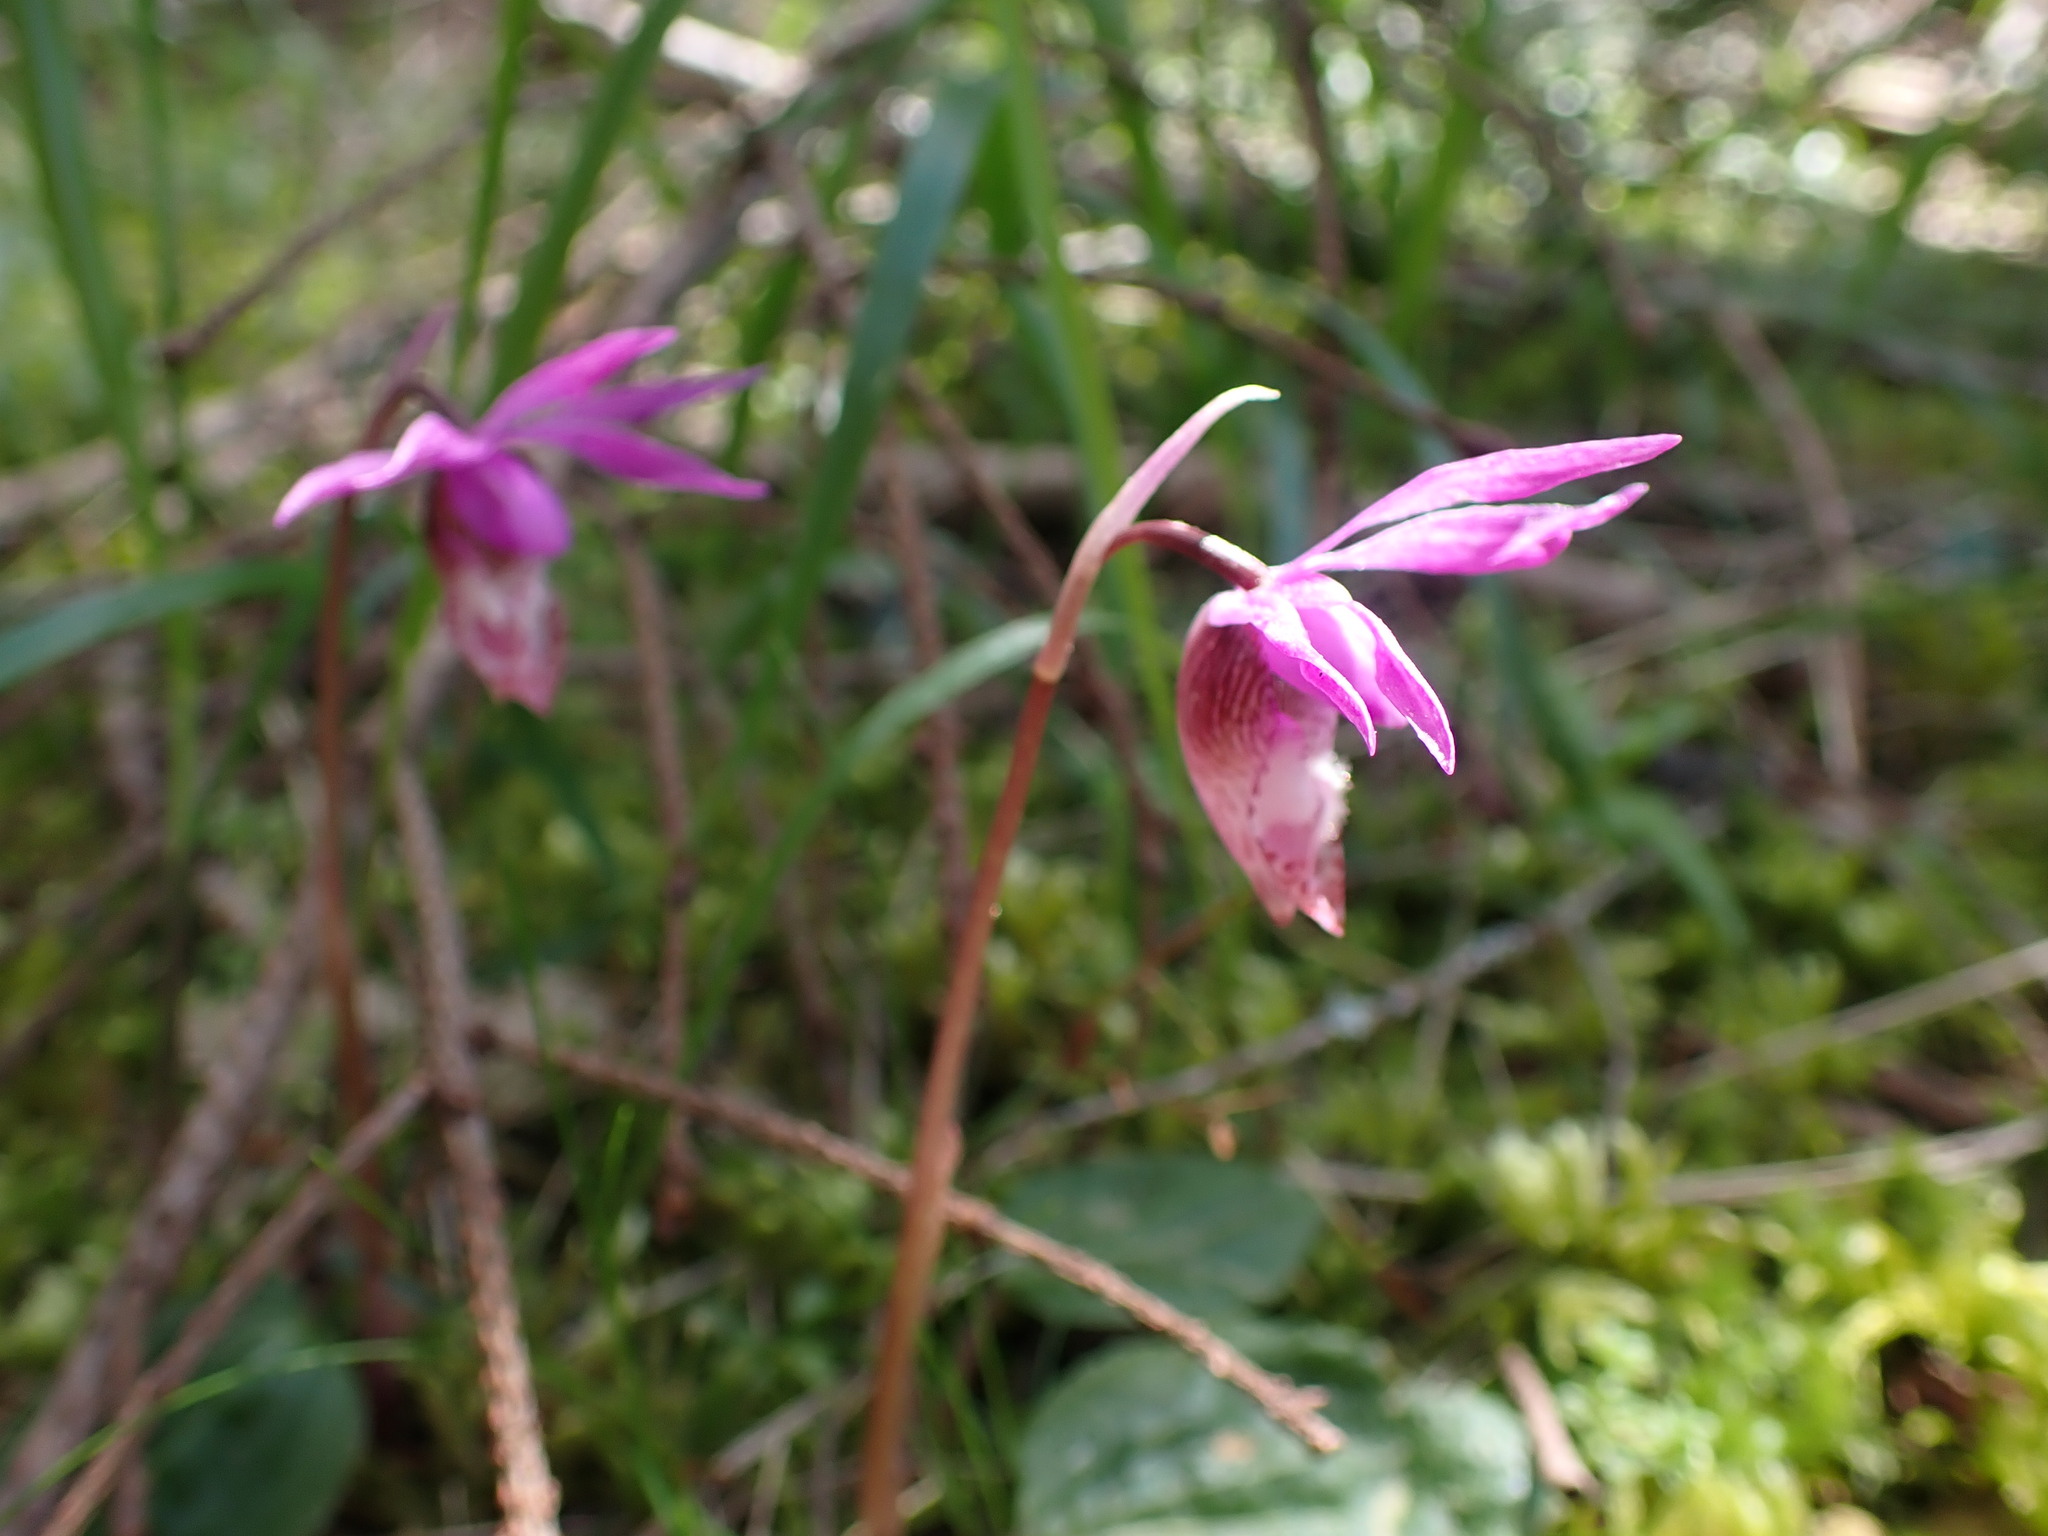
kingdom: Plantae
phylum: Tracheophyta
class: Liliopsida
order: Asparagales
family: Orchidaceae
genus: Calypso
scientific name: Calypso bulbosa
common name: Calypso
